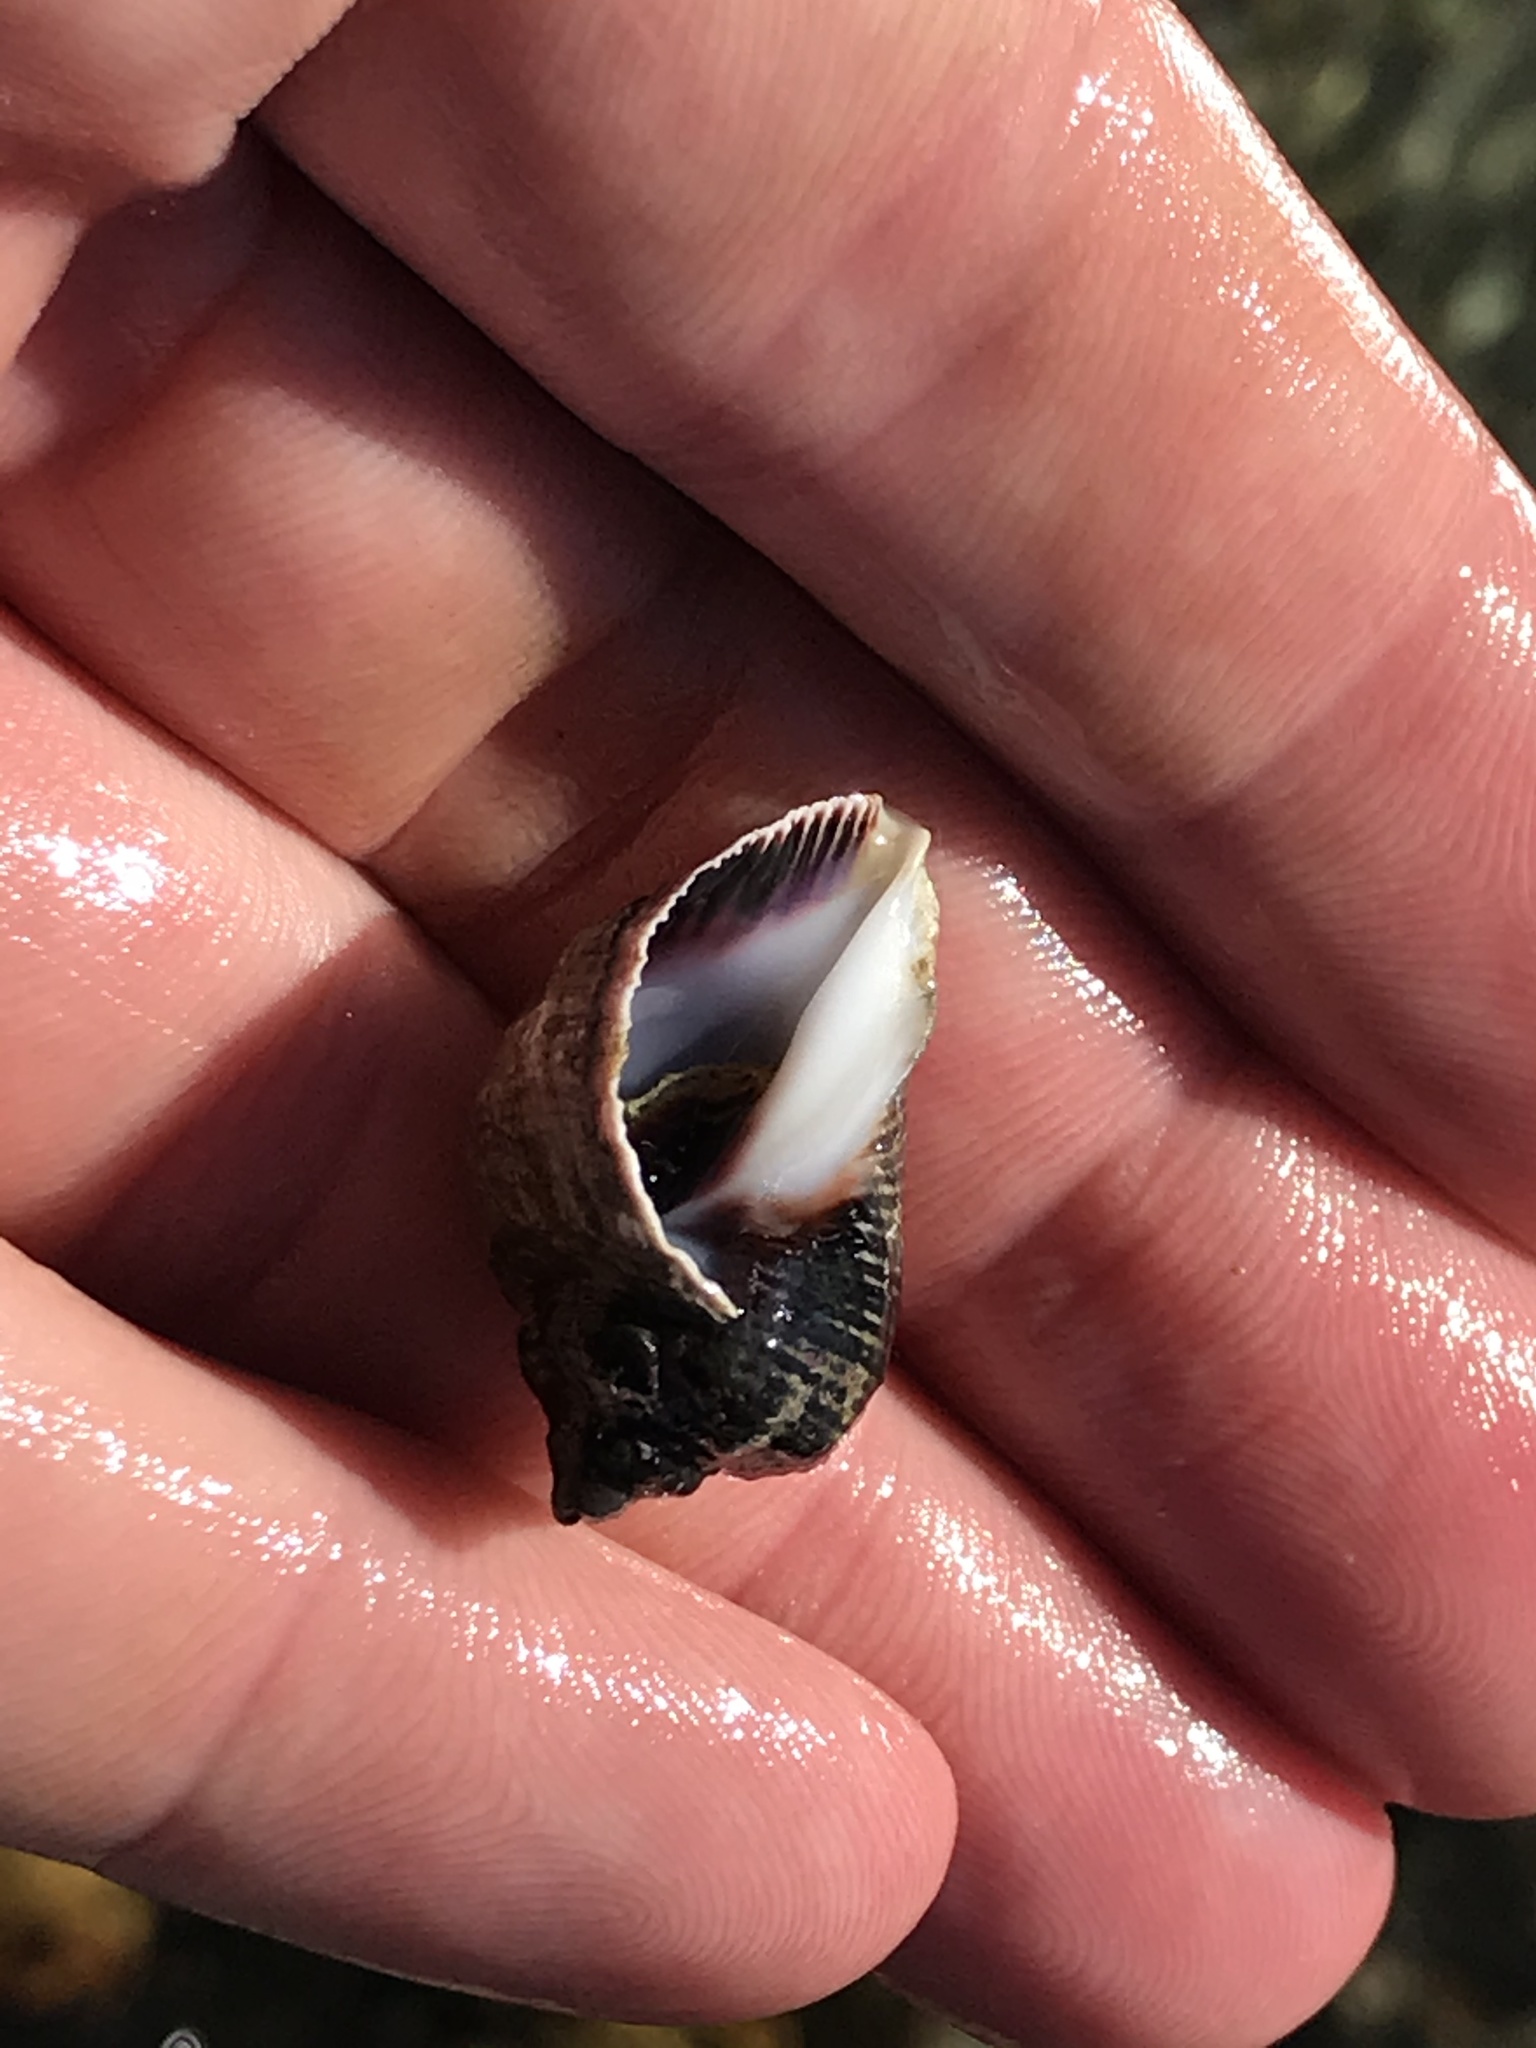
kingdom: Animalia
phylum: Mollusca
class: Gastropoda
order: Neogastropoda
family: Muricidae
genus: Haustrum
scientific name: Haustrum haustorium
